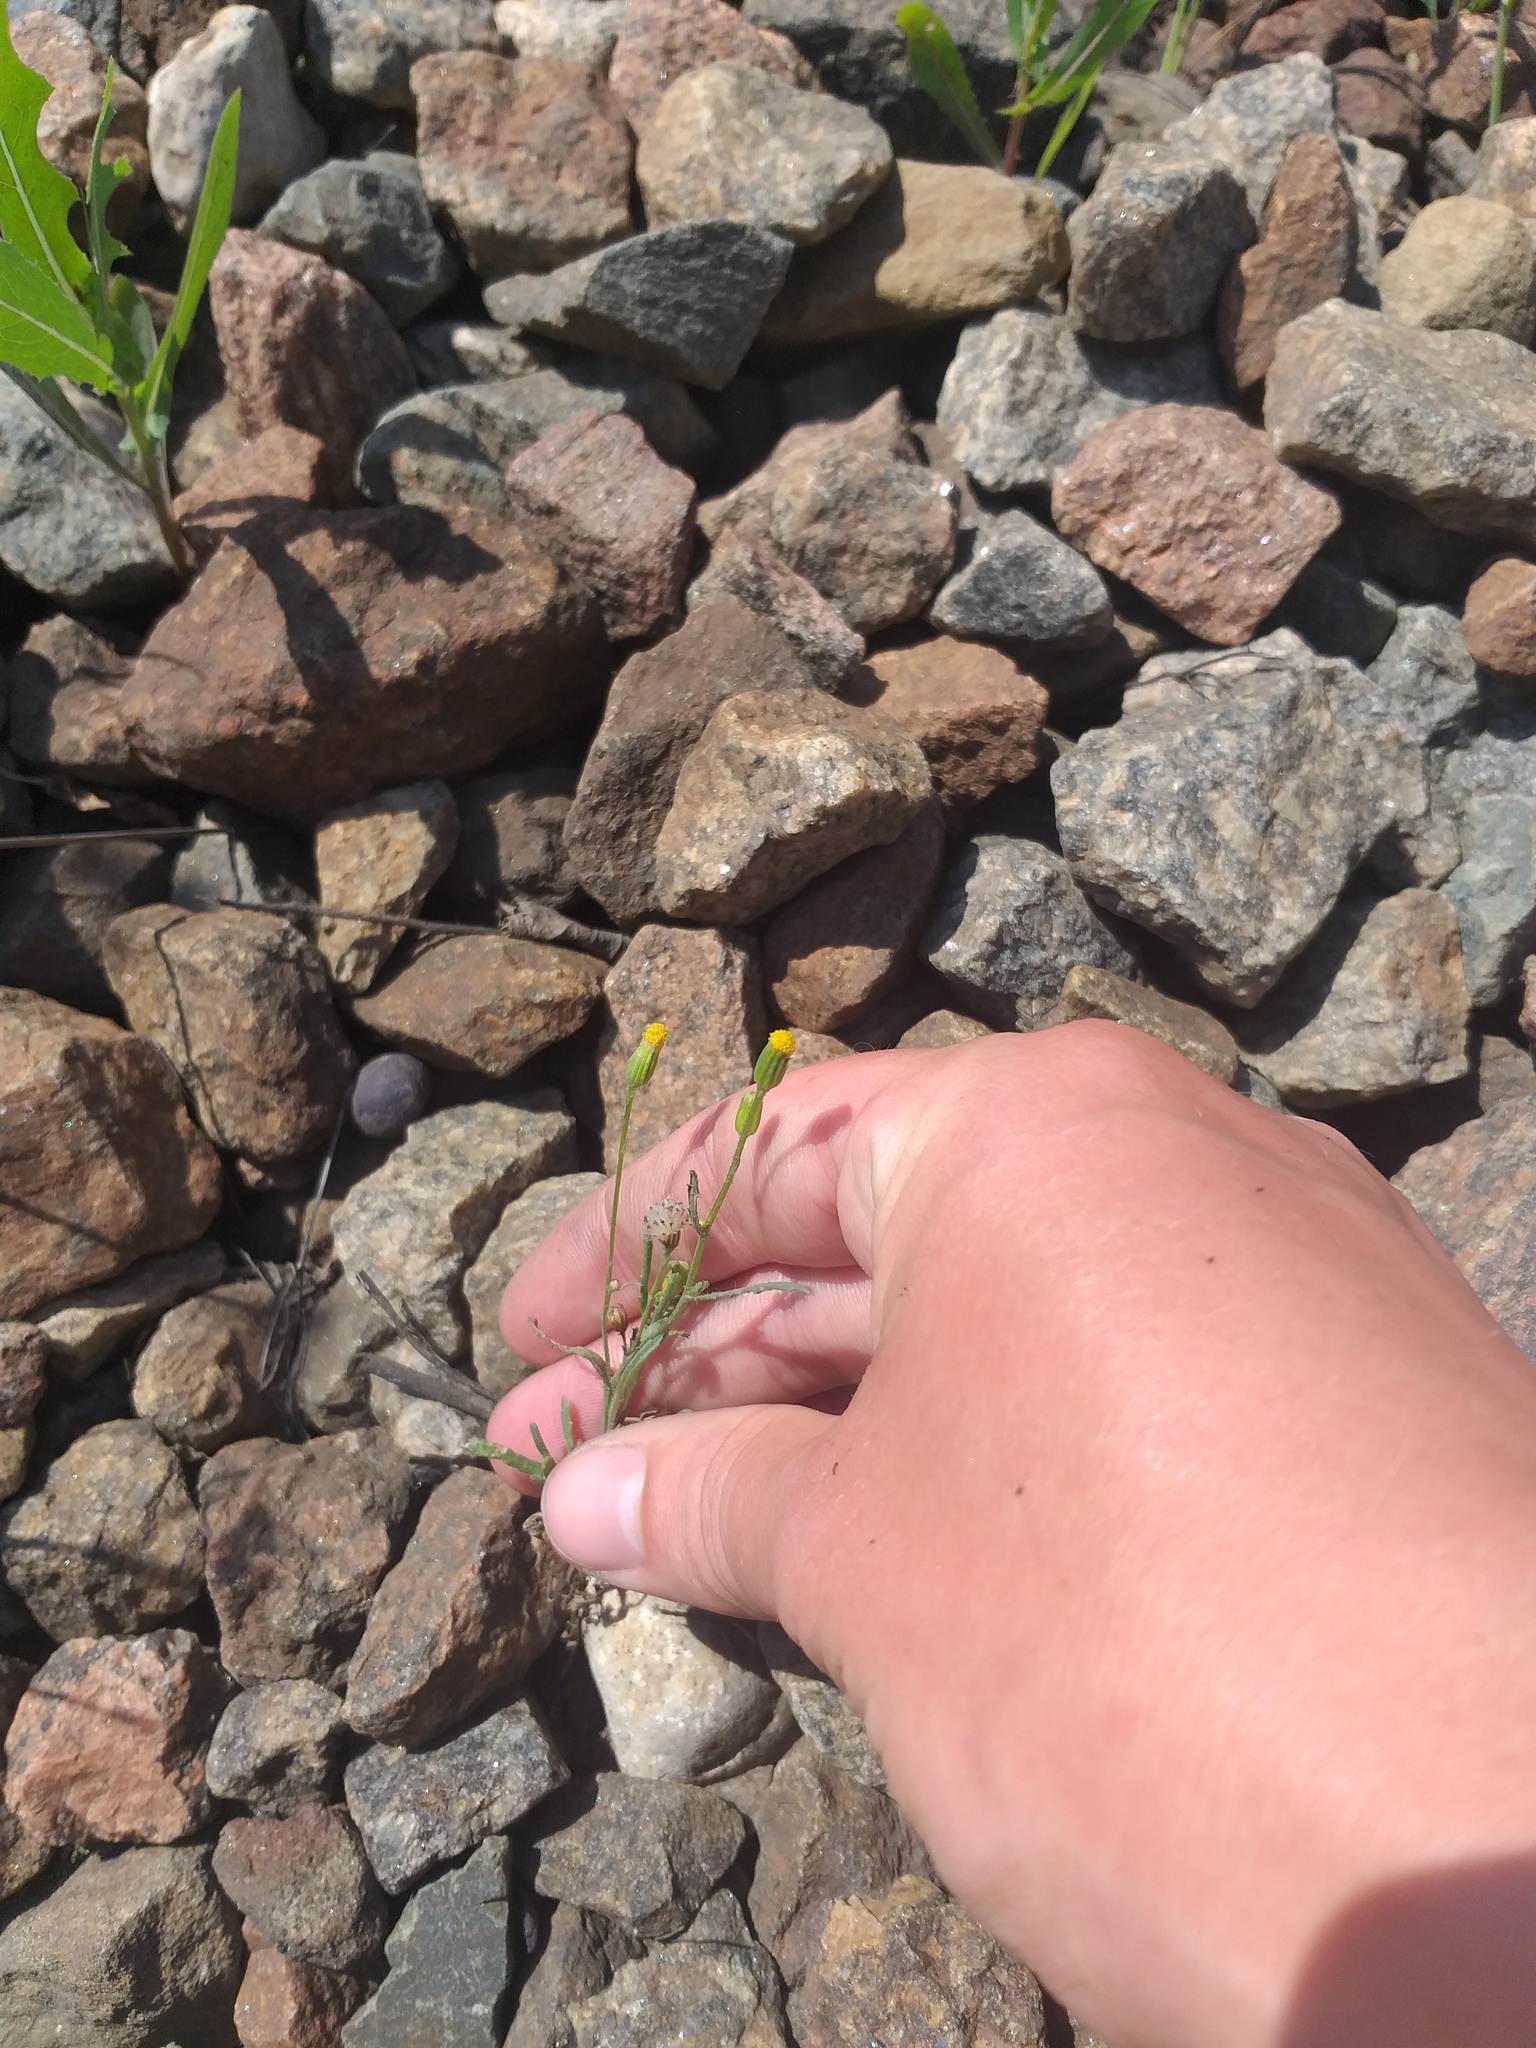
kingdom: Plantae
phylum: Tracheophyta
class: Magnoliopsida
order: Asterales
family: Asteraceae
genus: Senecio
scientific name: Senecio dubitabilis
